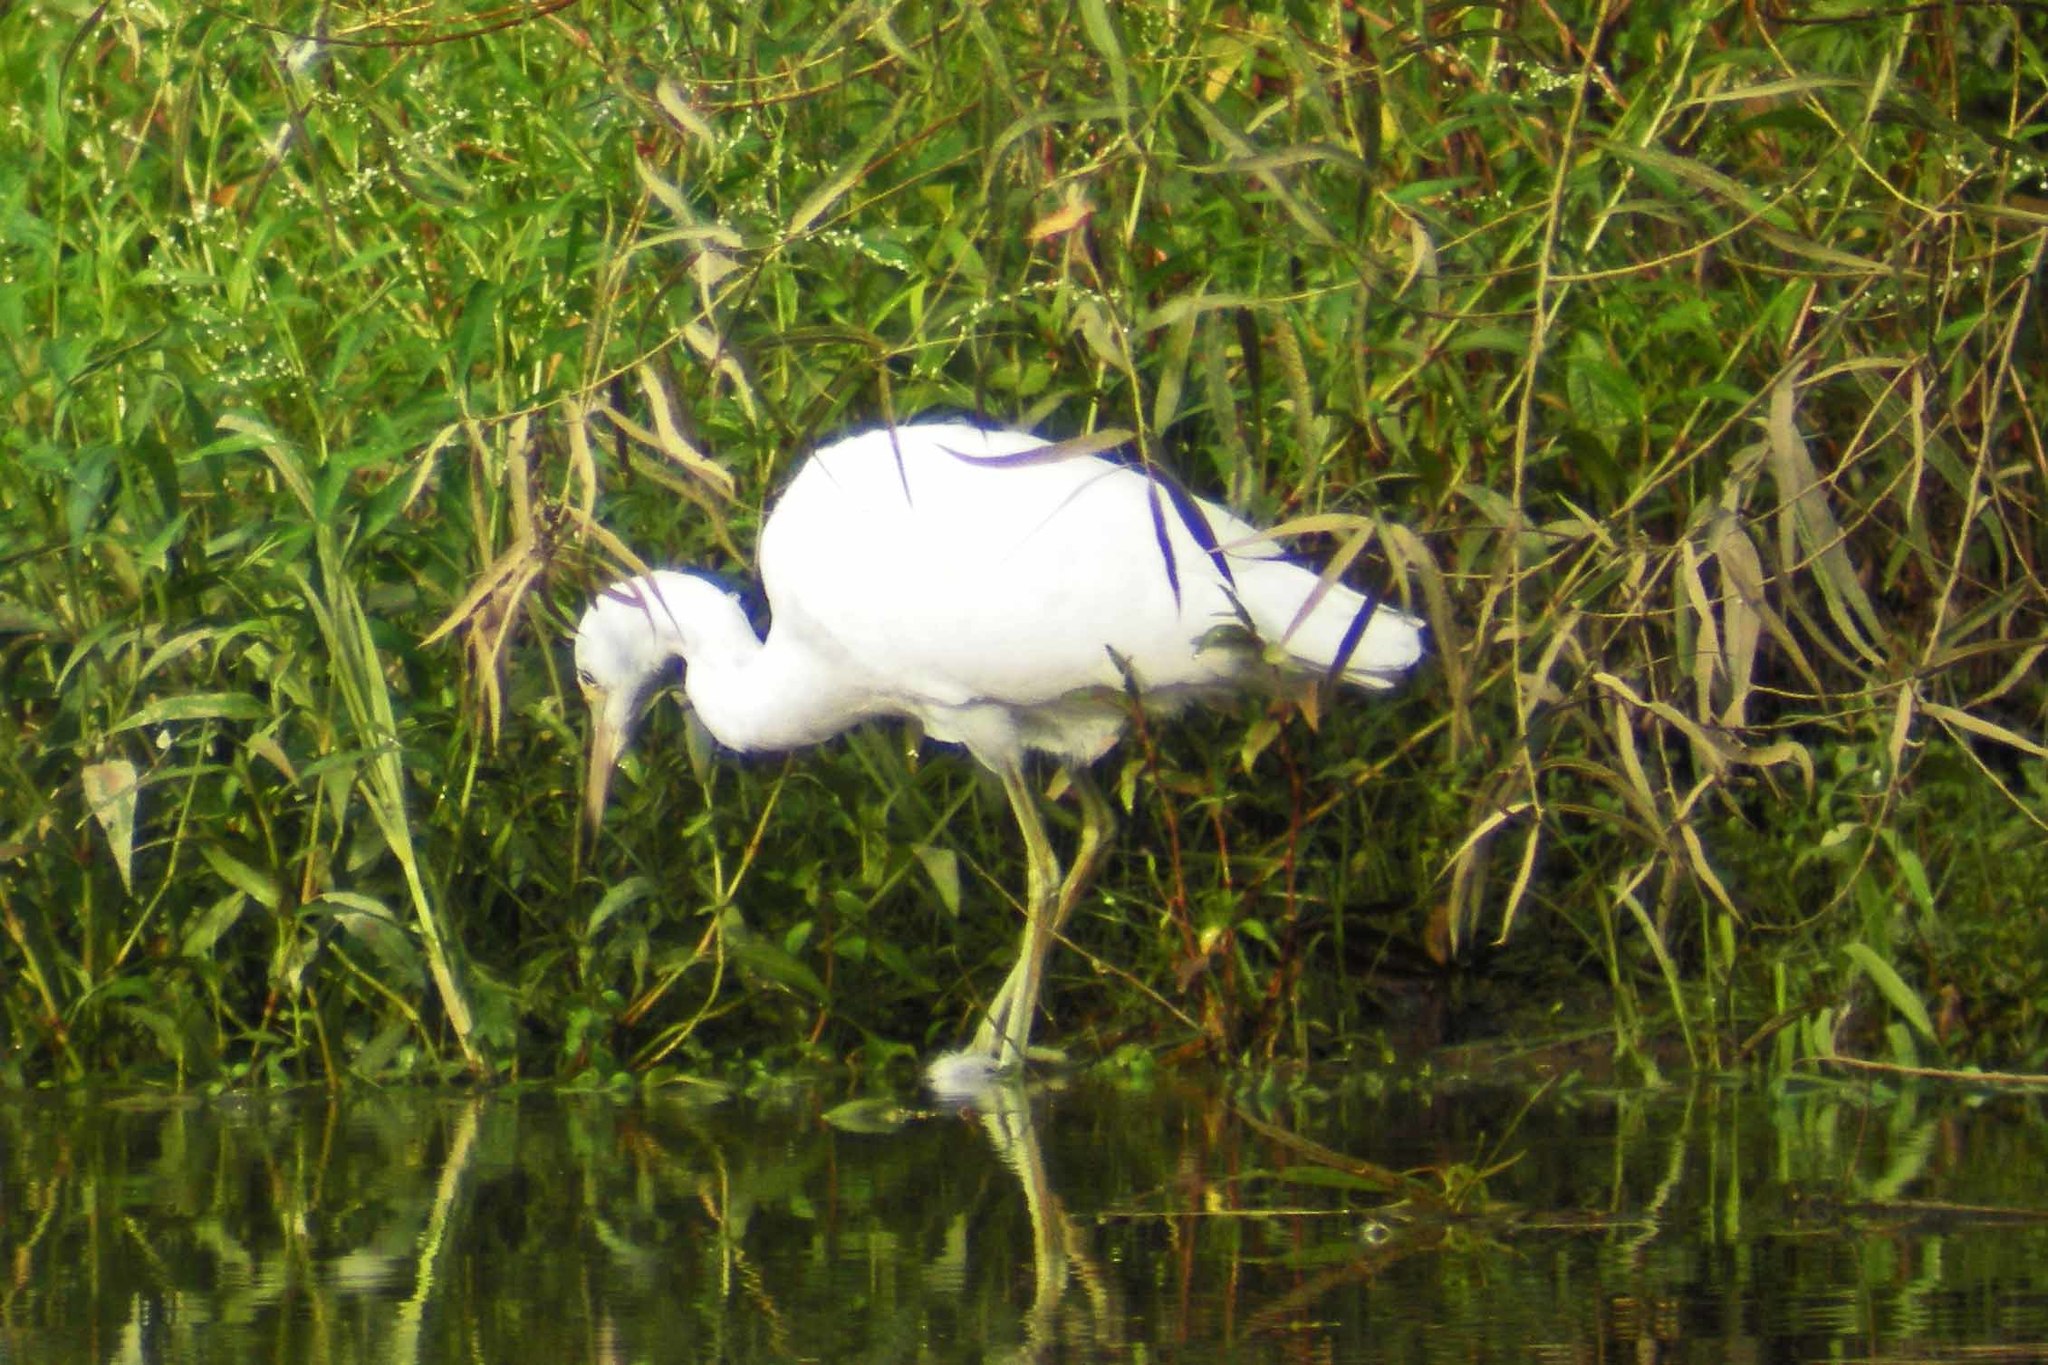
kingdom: Animalia
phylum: Chordata
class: Aves
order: Pelecaniformes
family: Ardeidae
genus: Egretta
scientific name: Egretta caerulea
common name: Little blue heron
